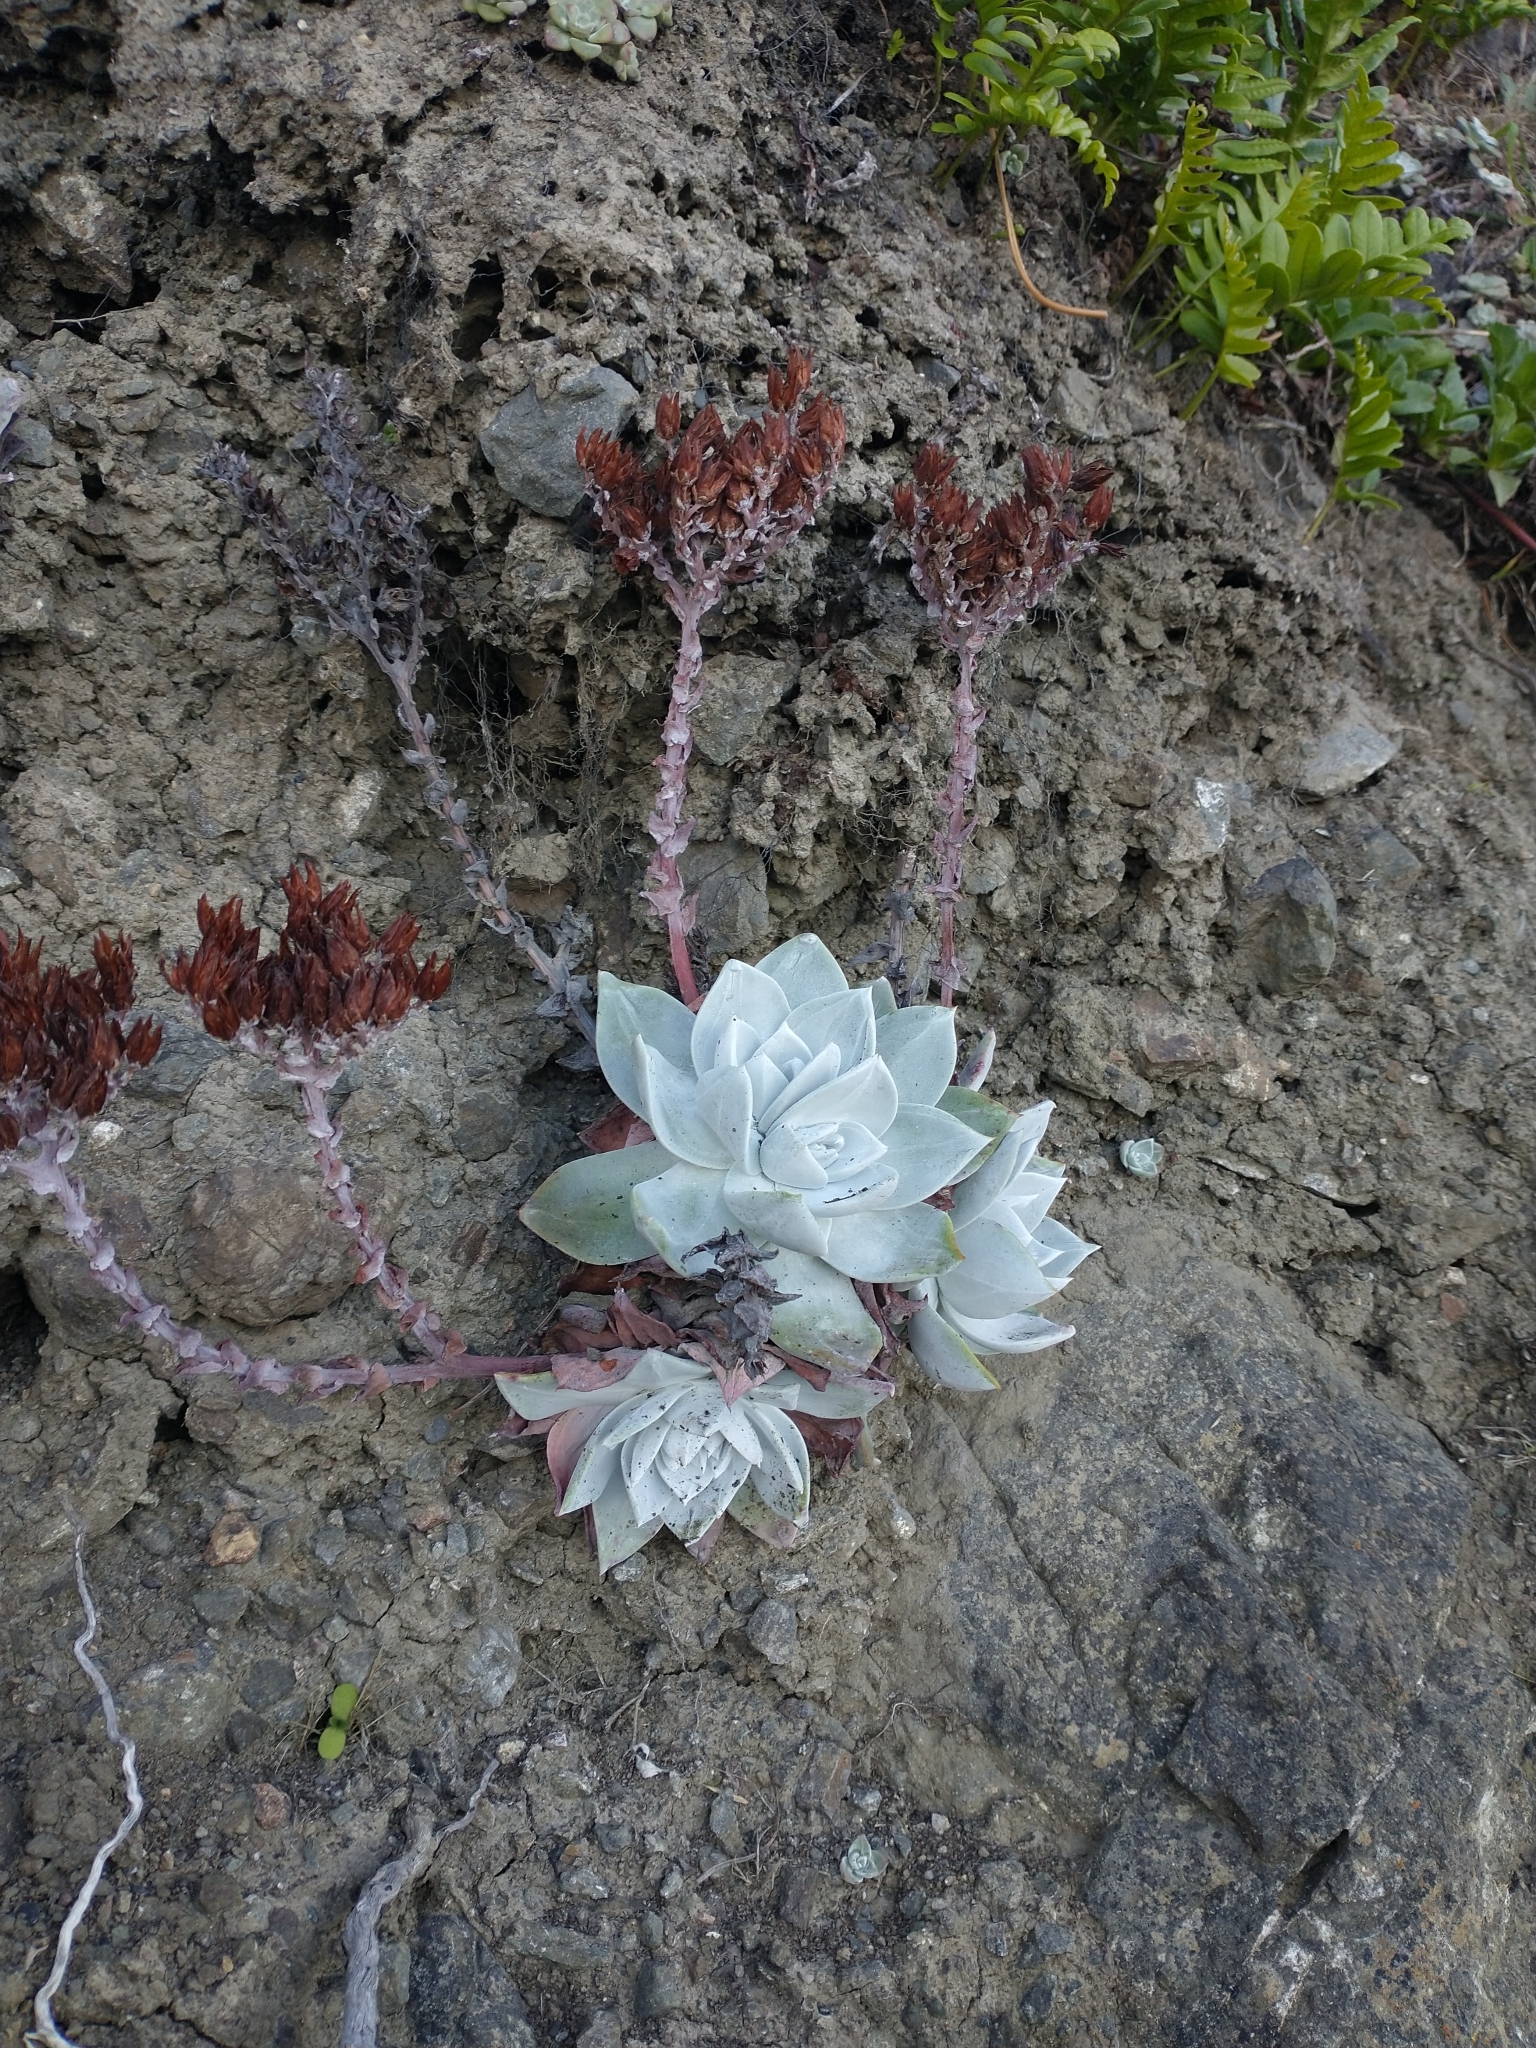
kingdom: Plantae
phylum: Tracheophyta
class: Magnoliopsida
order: Saxifragales
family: Crassulaceae
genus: Dudleya
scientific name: Dudleya farinosa
